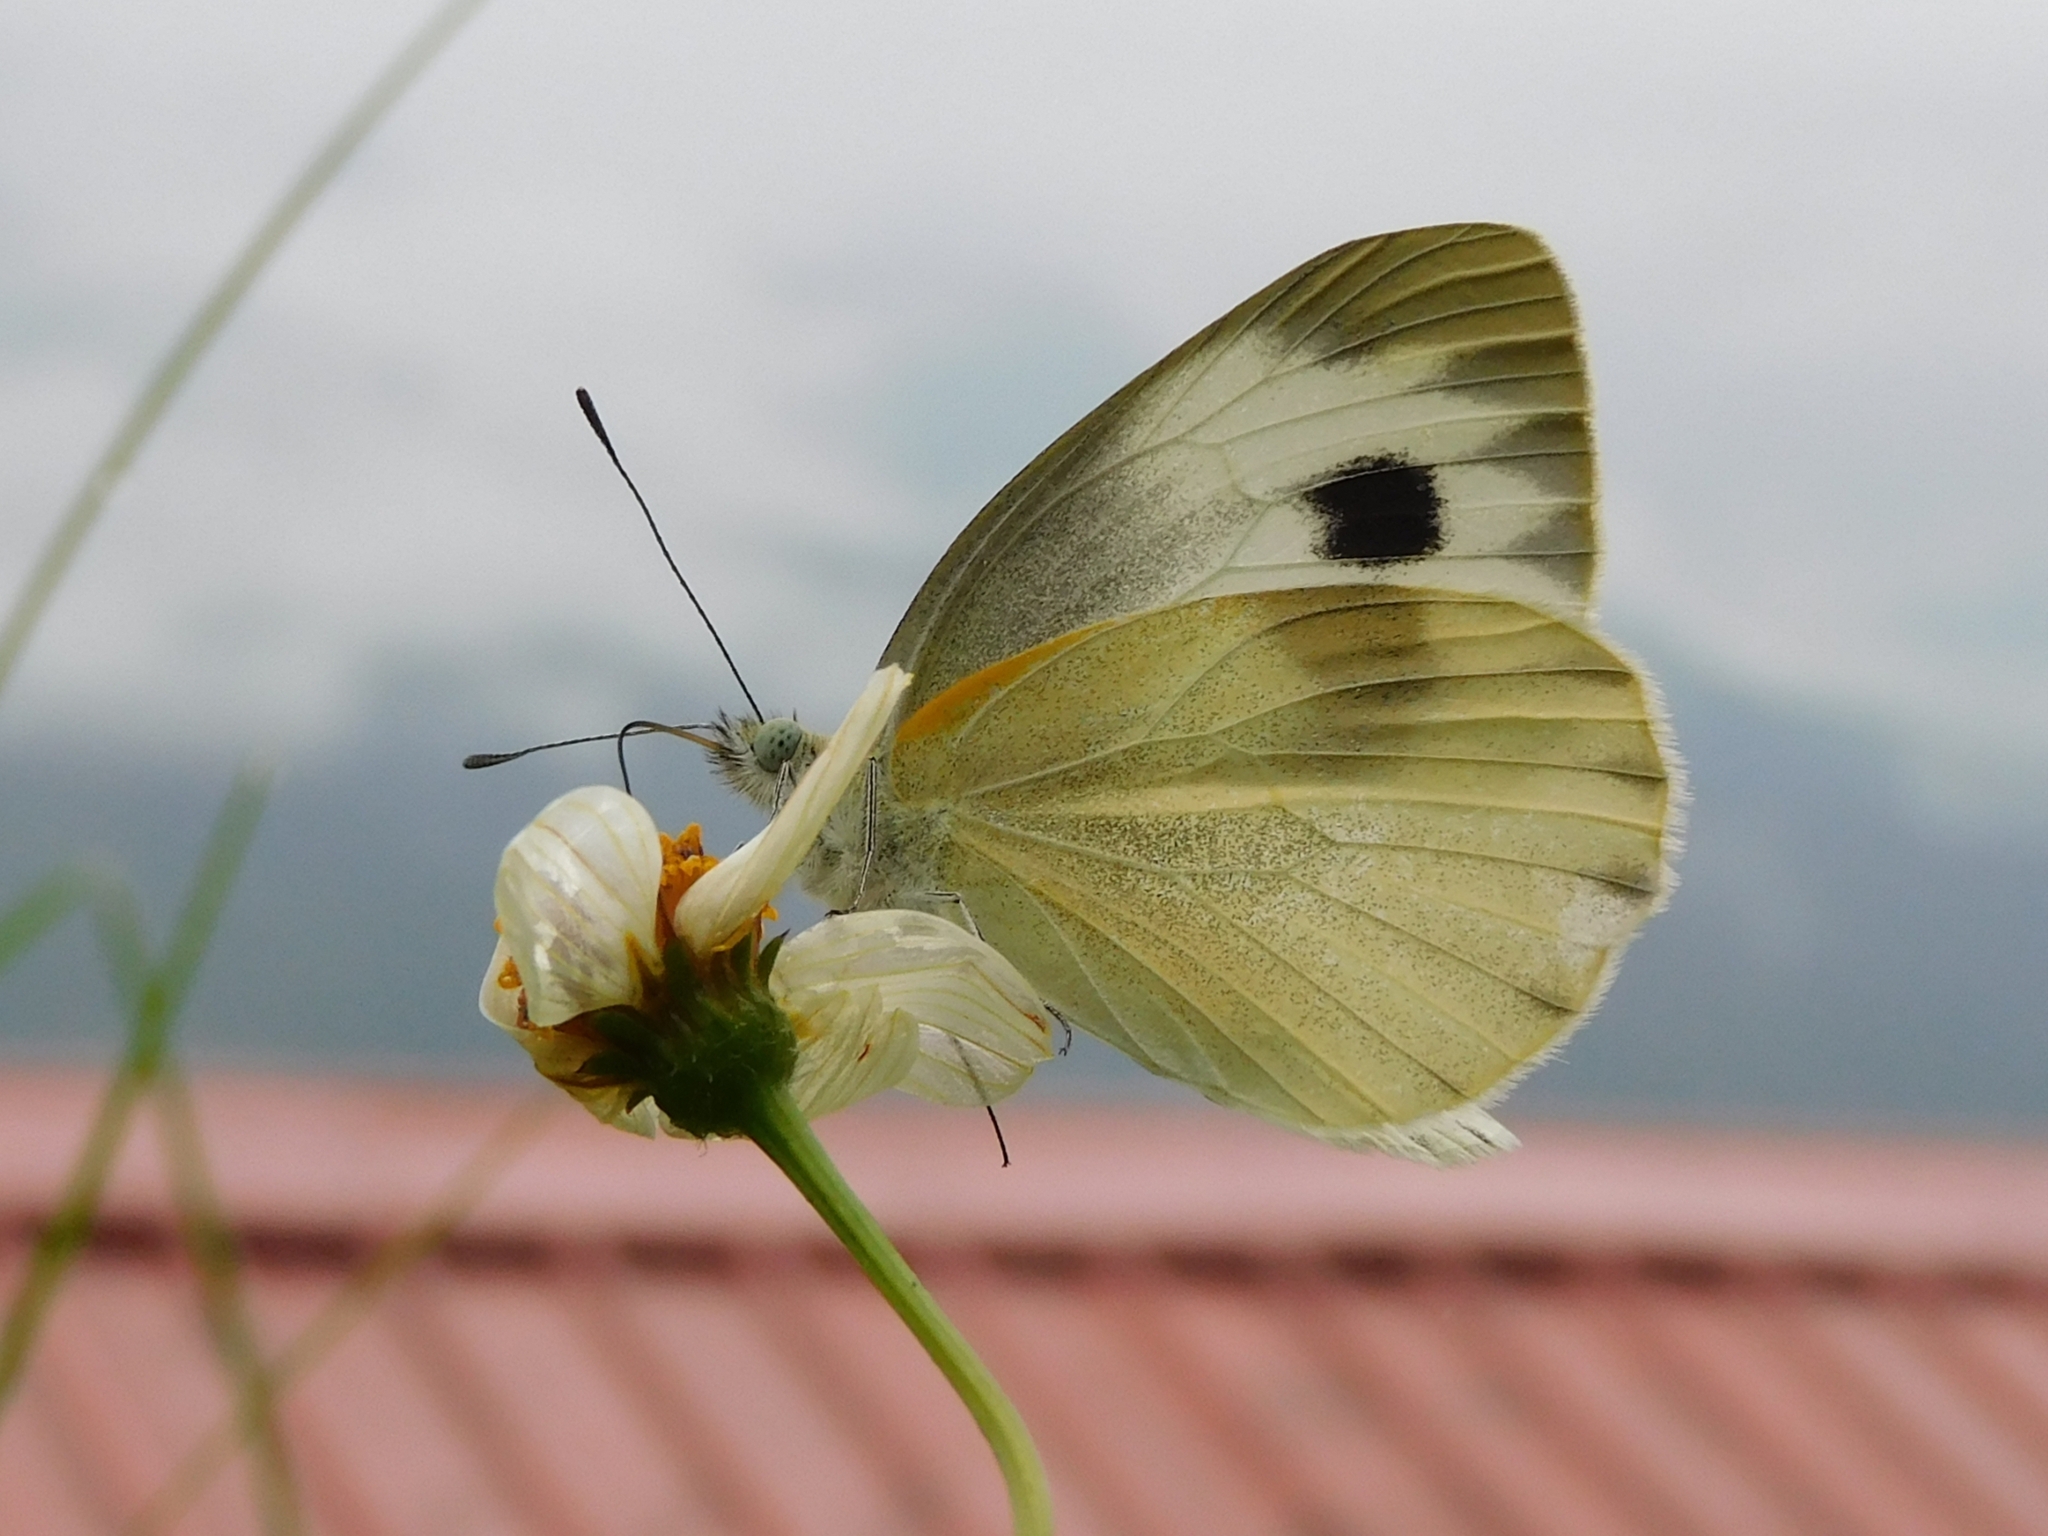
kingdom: Animalia
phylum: Arthropoda
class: Insecta
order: Lepidoptera
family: Pieridae
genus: Pieris
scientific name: Pieris canidia
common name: Indian cabbage white
